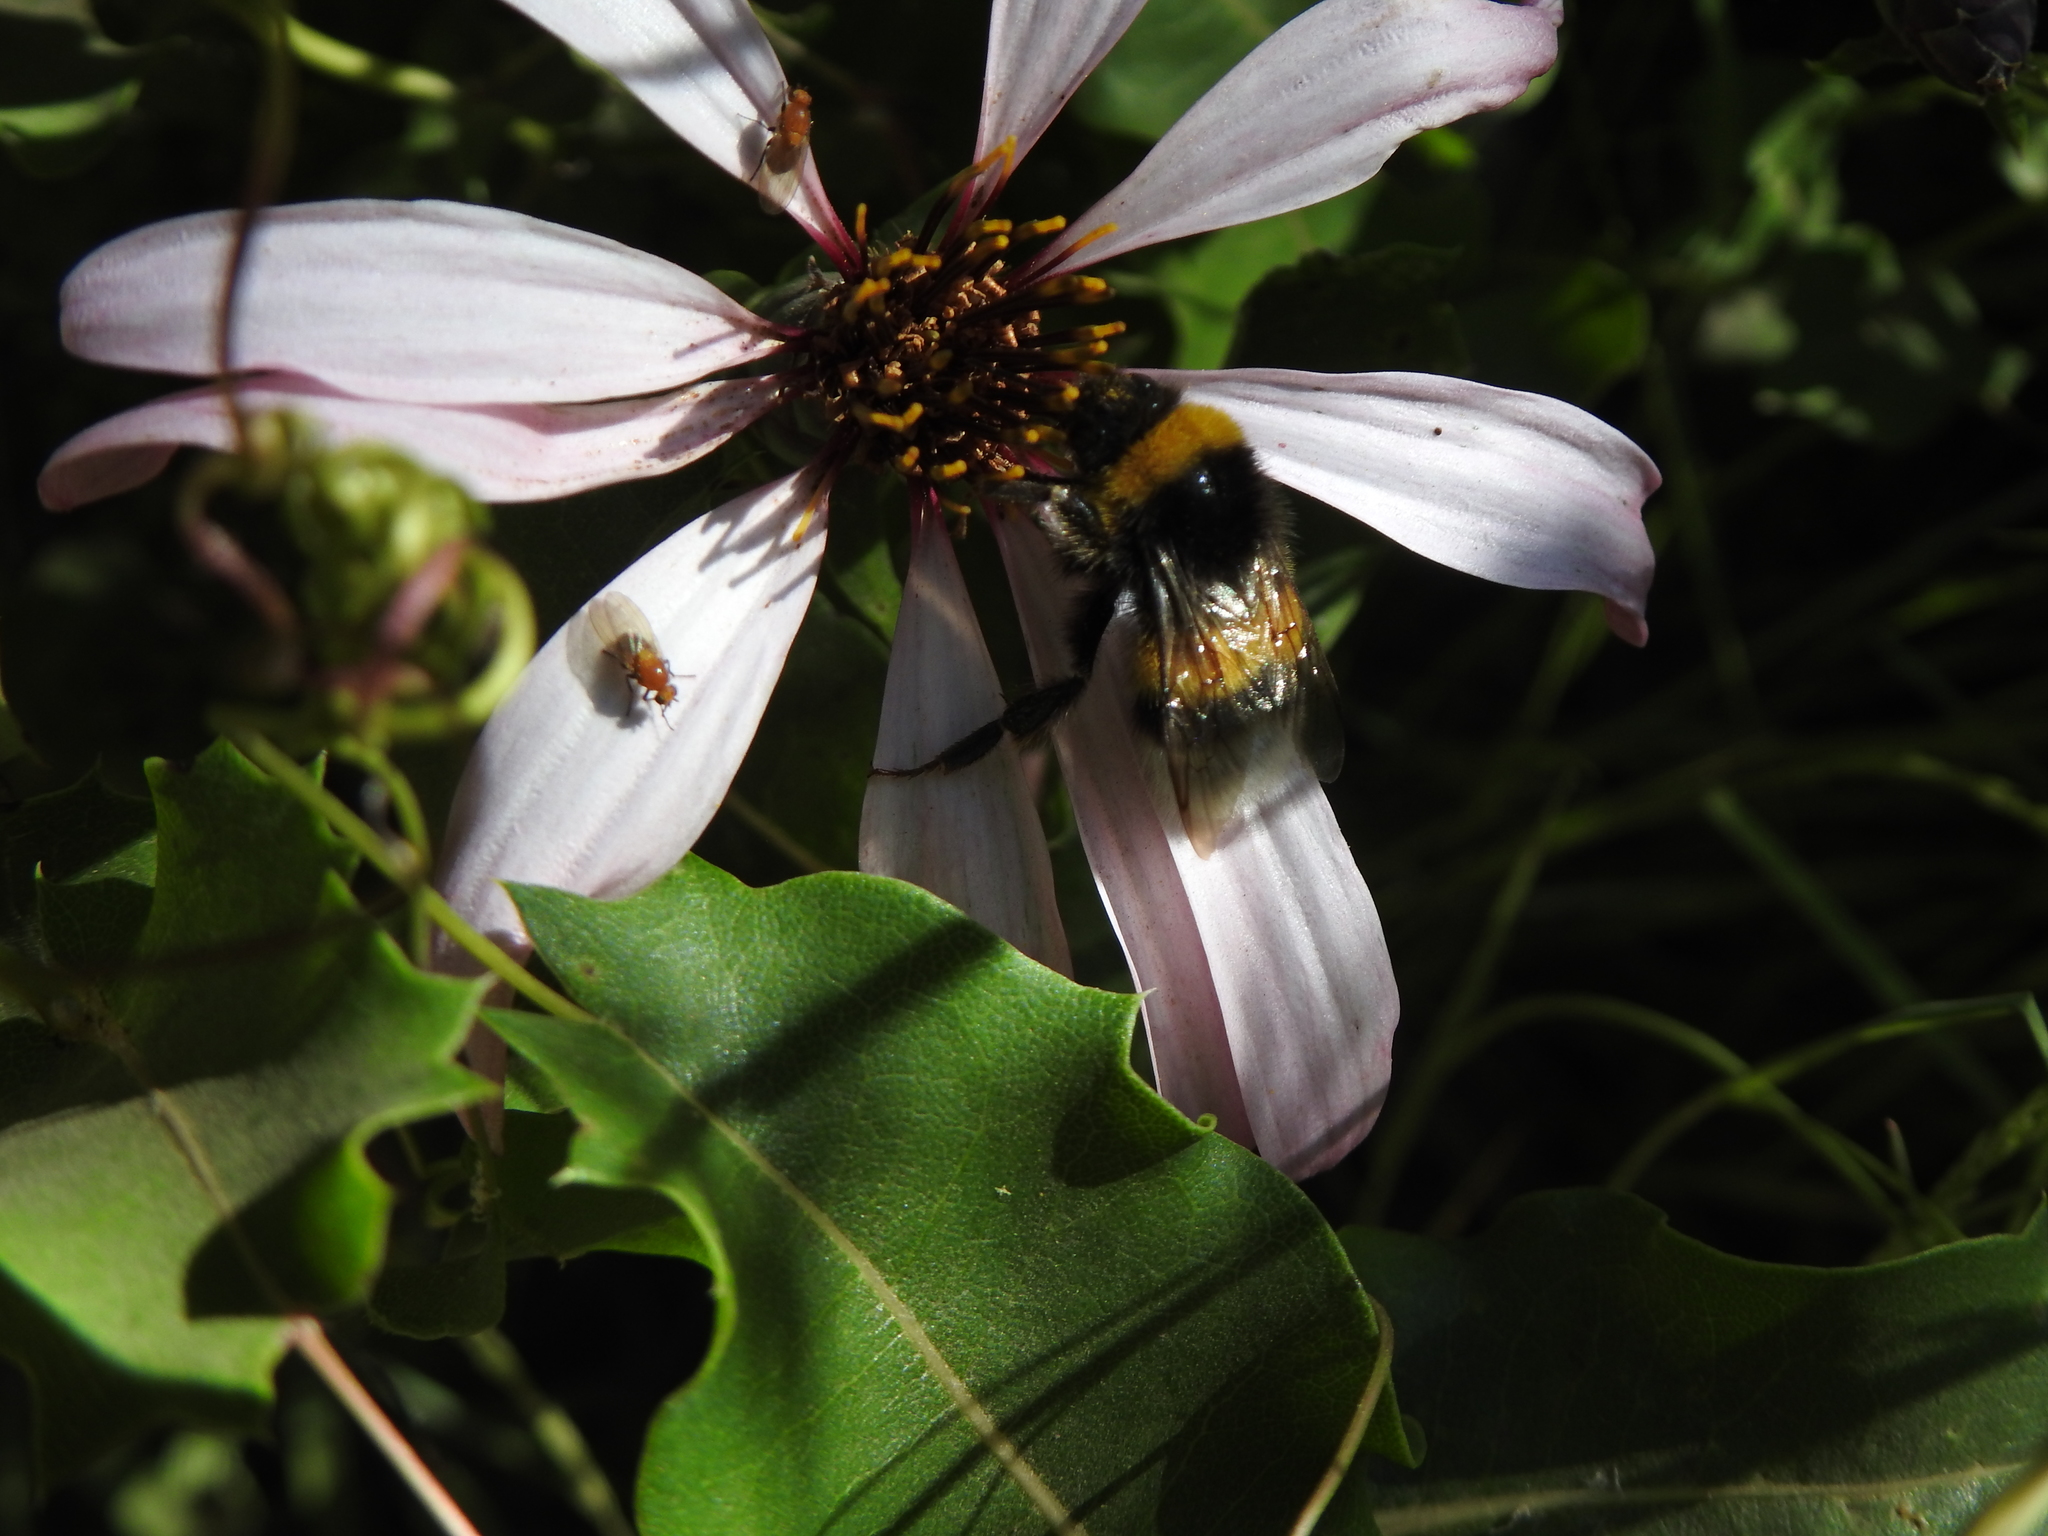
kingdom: Animalia
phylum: Arthropoda
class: Insecta
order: Hymenoptera
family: Apidae
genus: Bombus
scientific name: Bombus terrestris
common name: Buff-tailed bumblebee
